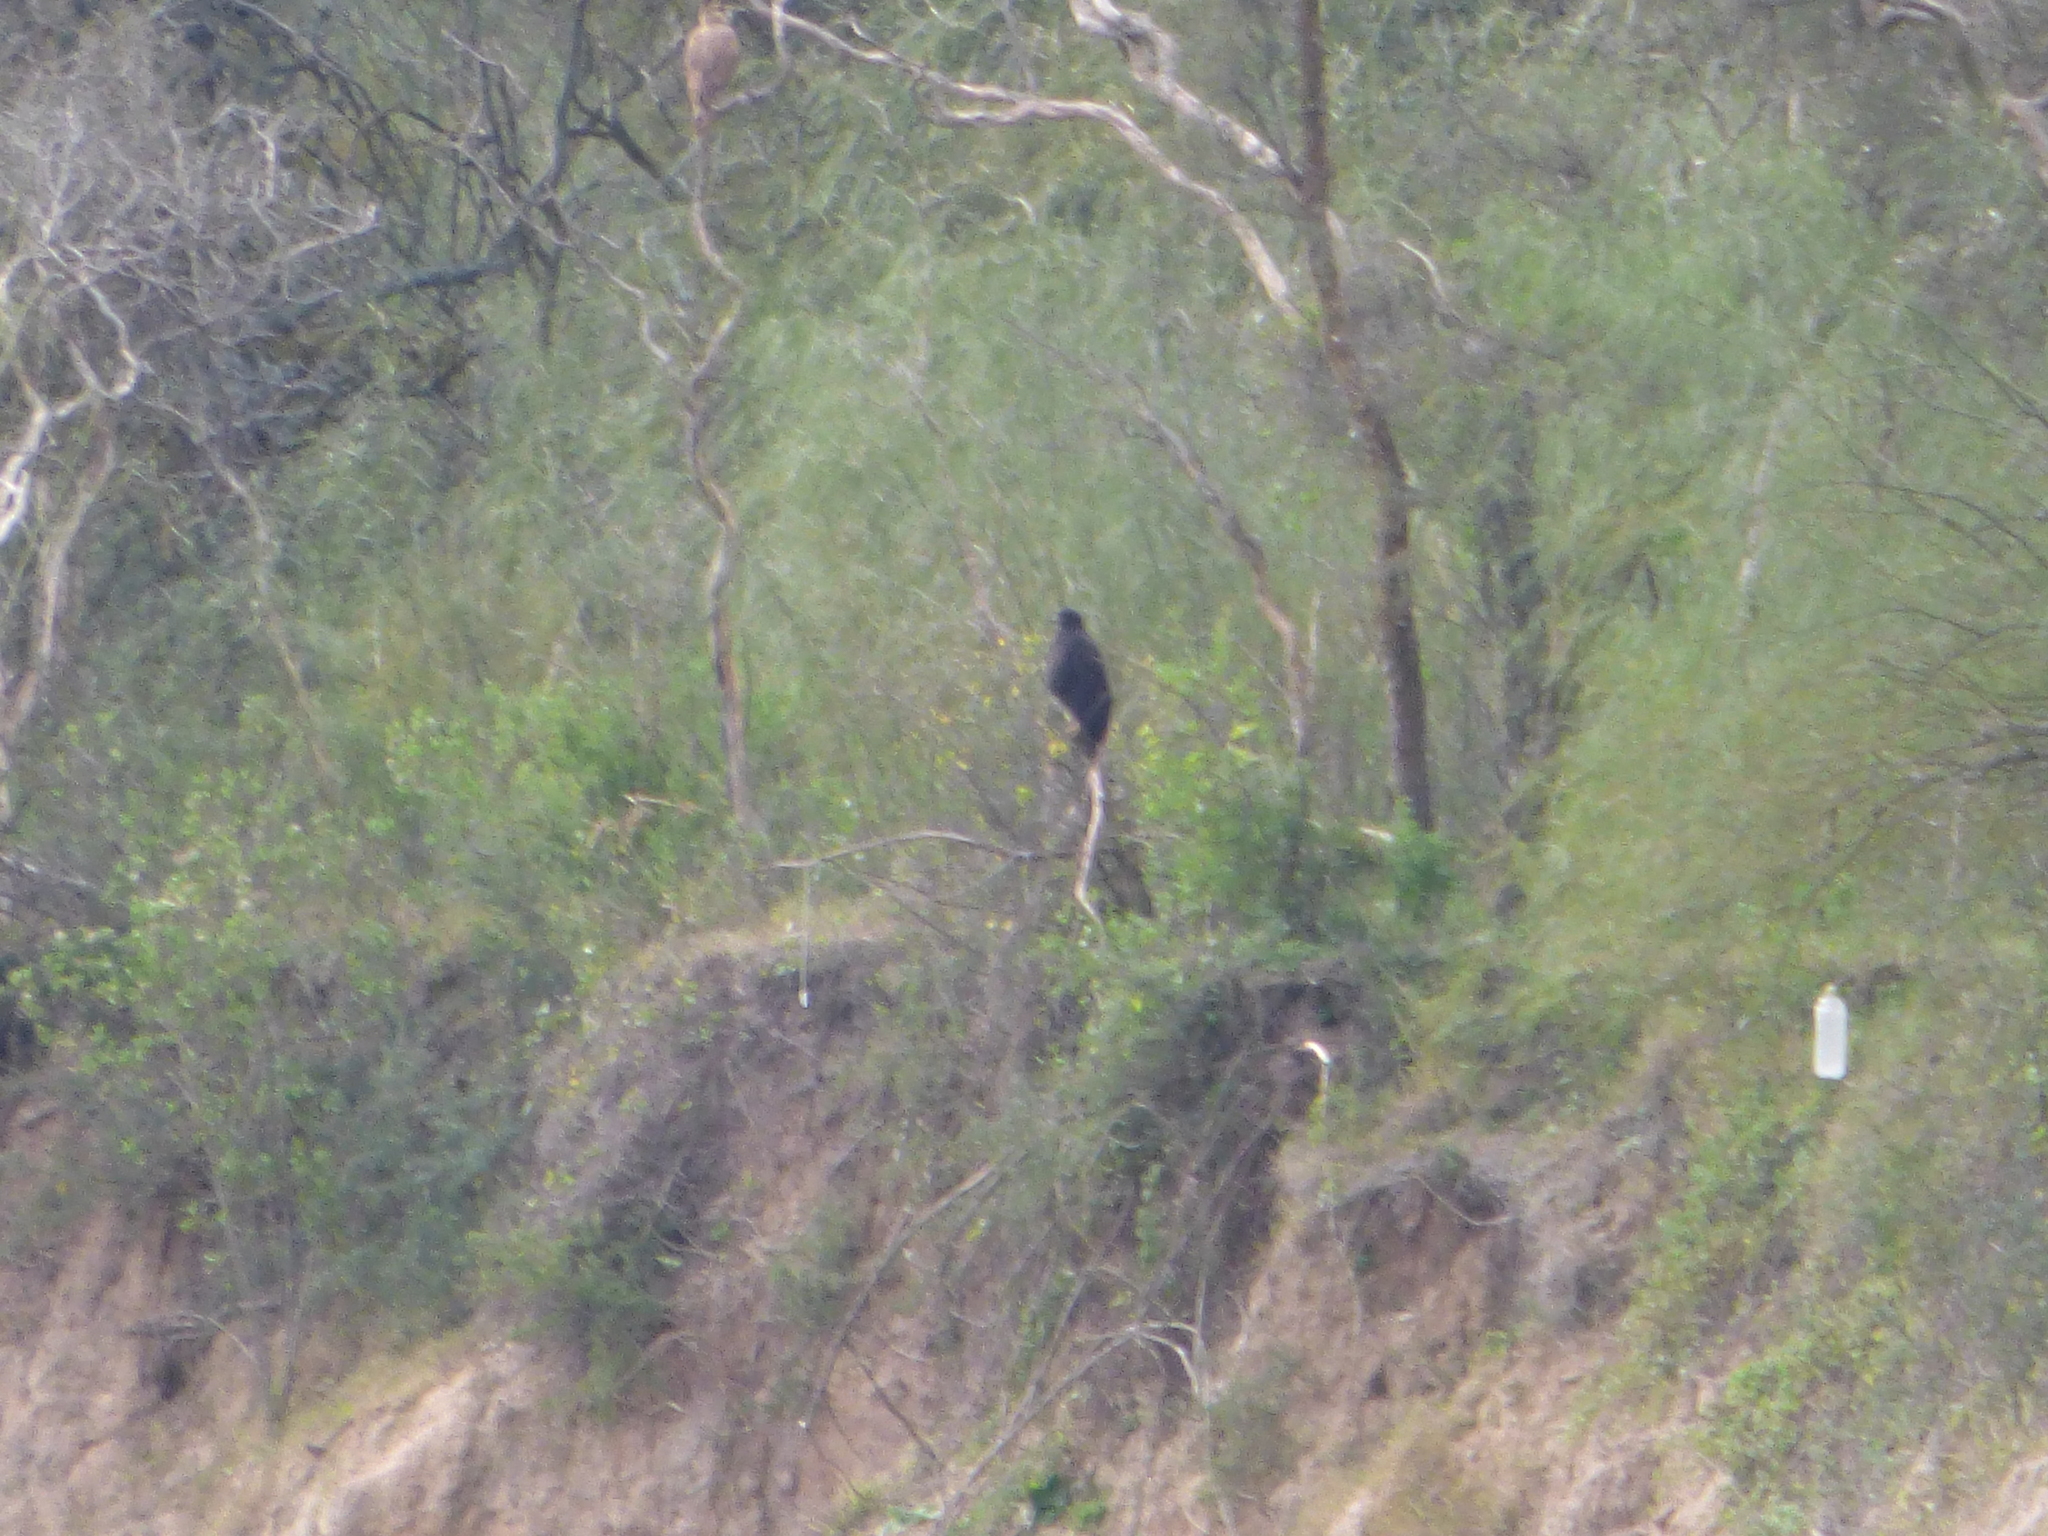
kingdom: Animalia
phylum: Chordata
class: Aves
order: Accipitriformes
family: Accipitridae
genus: Buteogallus
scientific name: Buteogallus urubitinga
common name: Great black hawk
